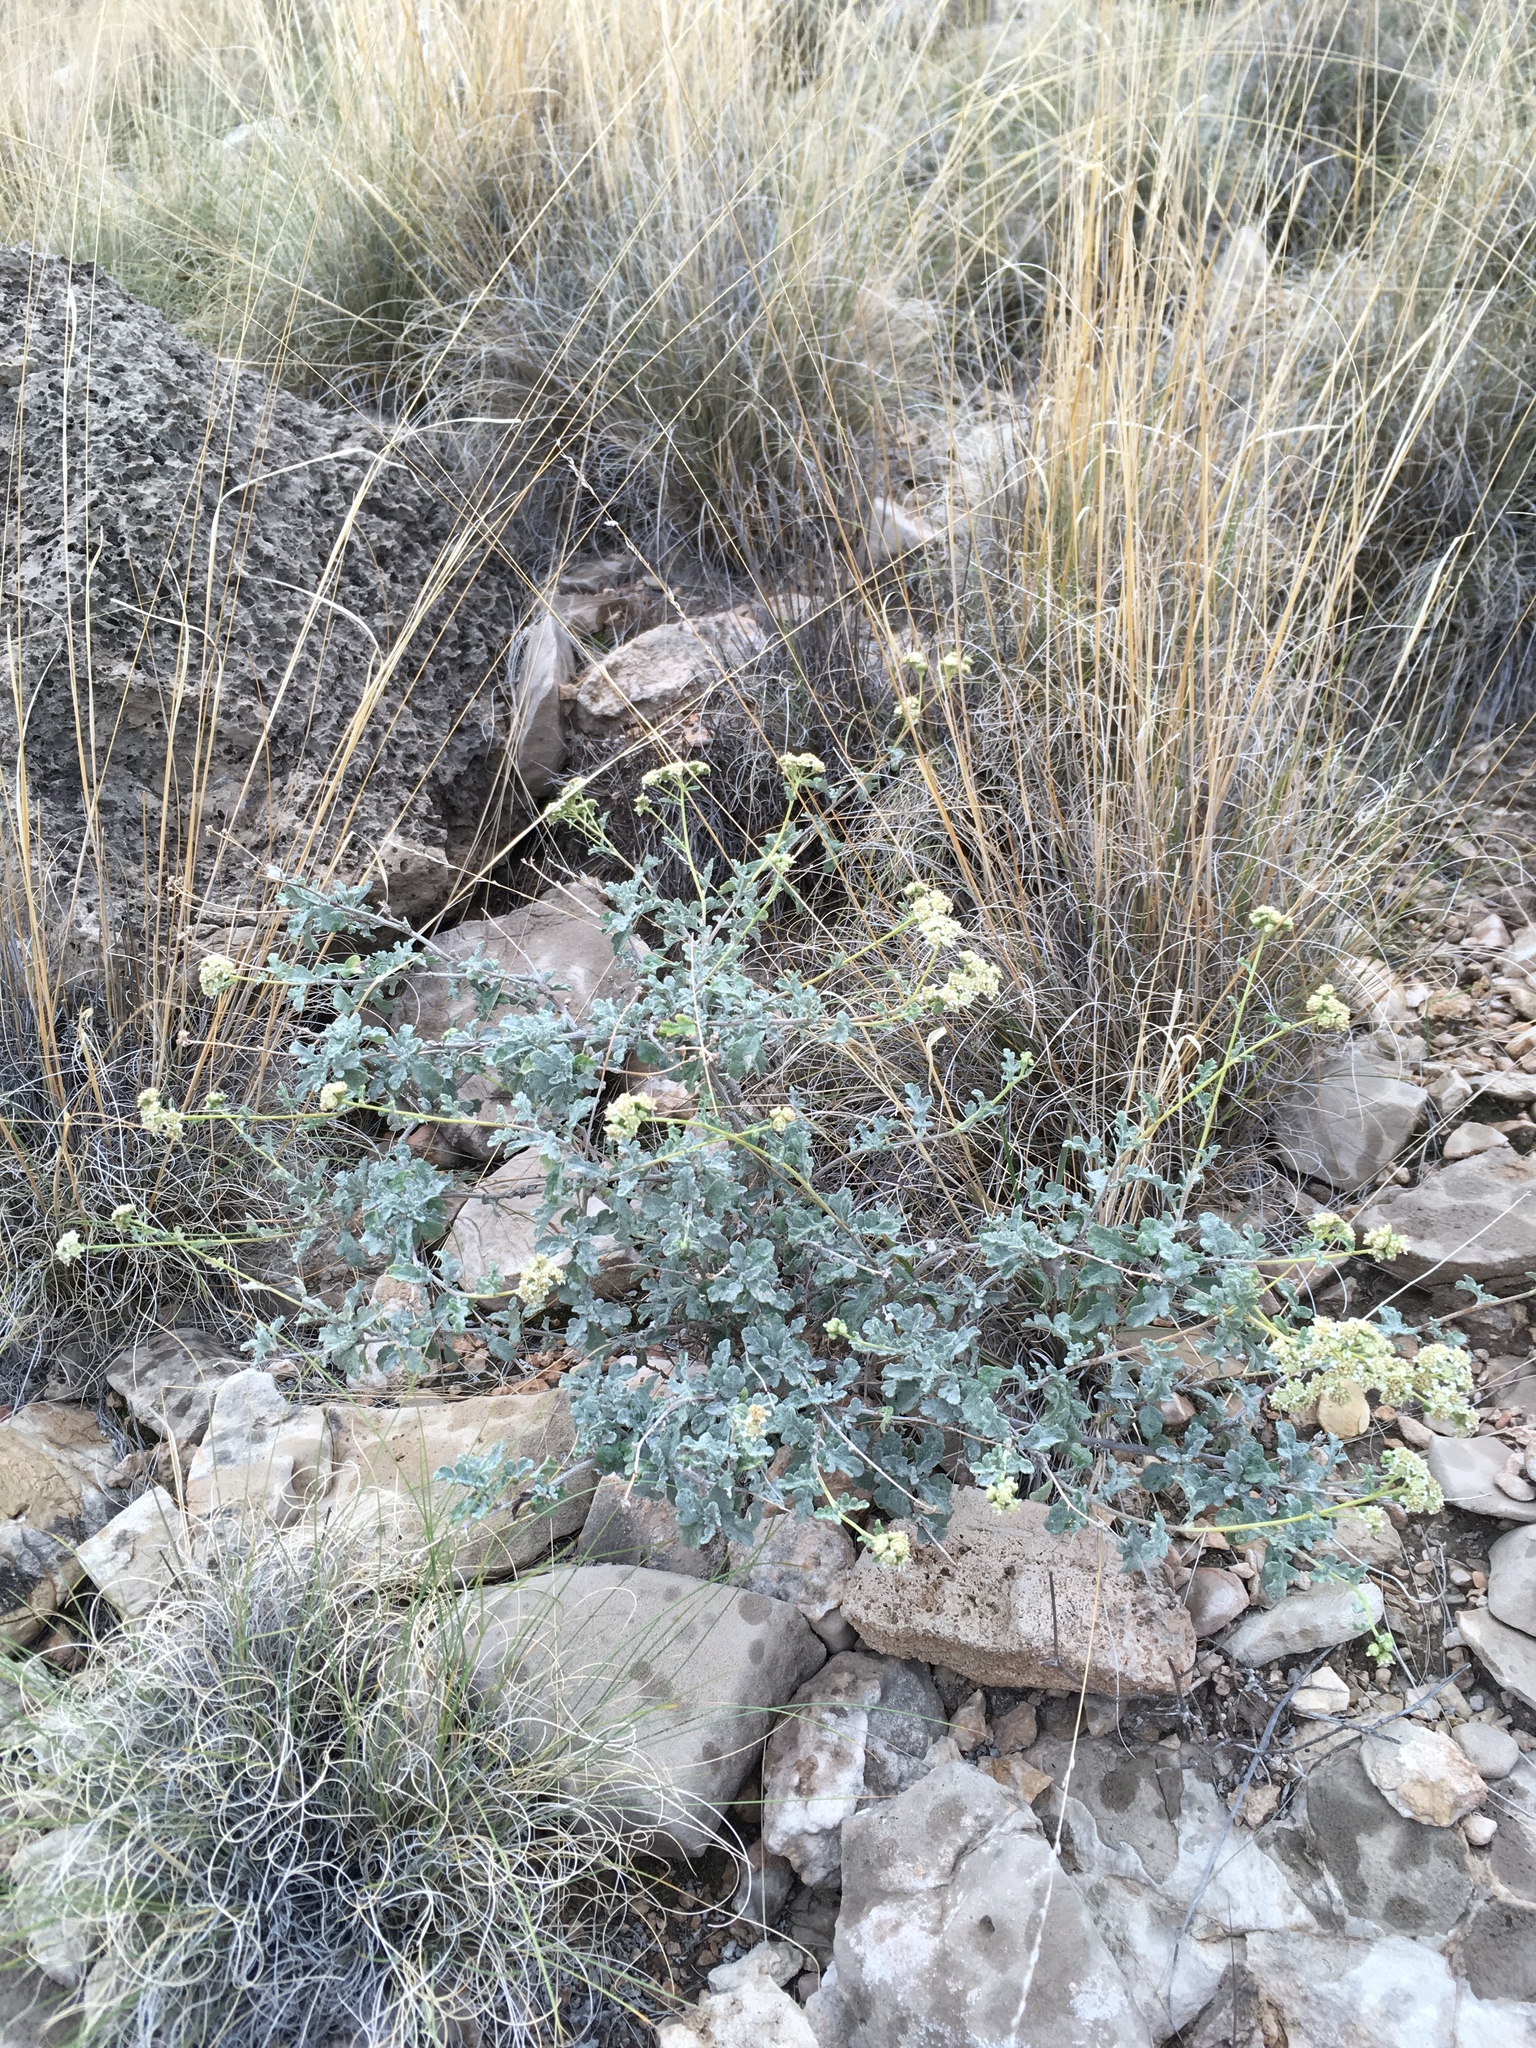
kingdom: Plantae
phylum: Tracheophyta
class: Magnoliopsida
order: Asterales
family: Asteraceae
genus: Parthenium
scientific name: Parthenium incanum
